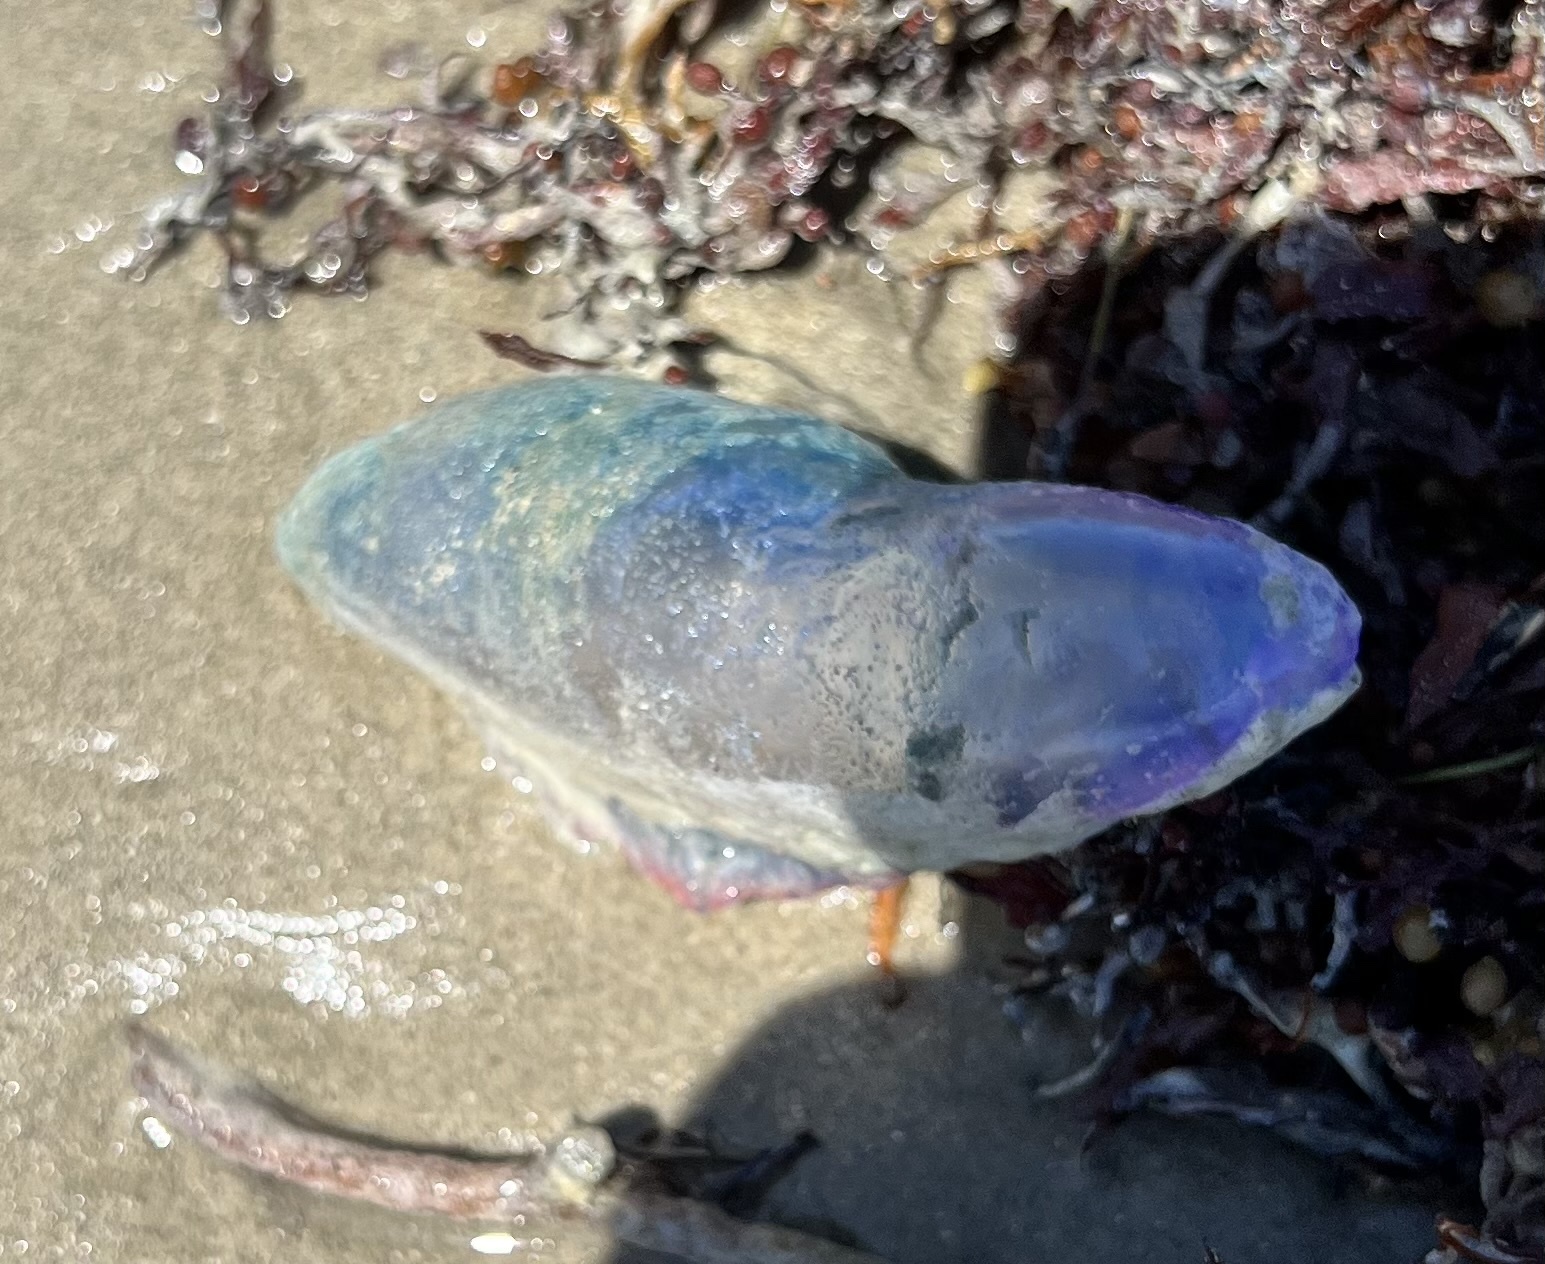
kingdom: Animalia
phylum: Cnidaria
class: Hydrozoa
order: Siphonophorae
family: Physaliidae
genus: Physalia
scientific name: Physalia physalis
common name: Portuguese man-of-war
